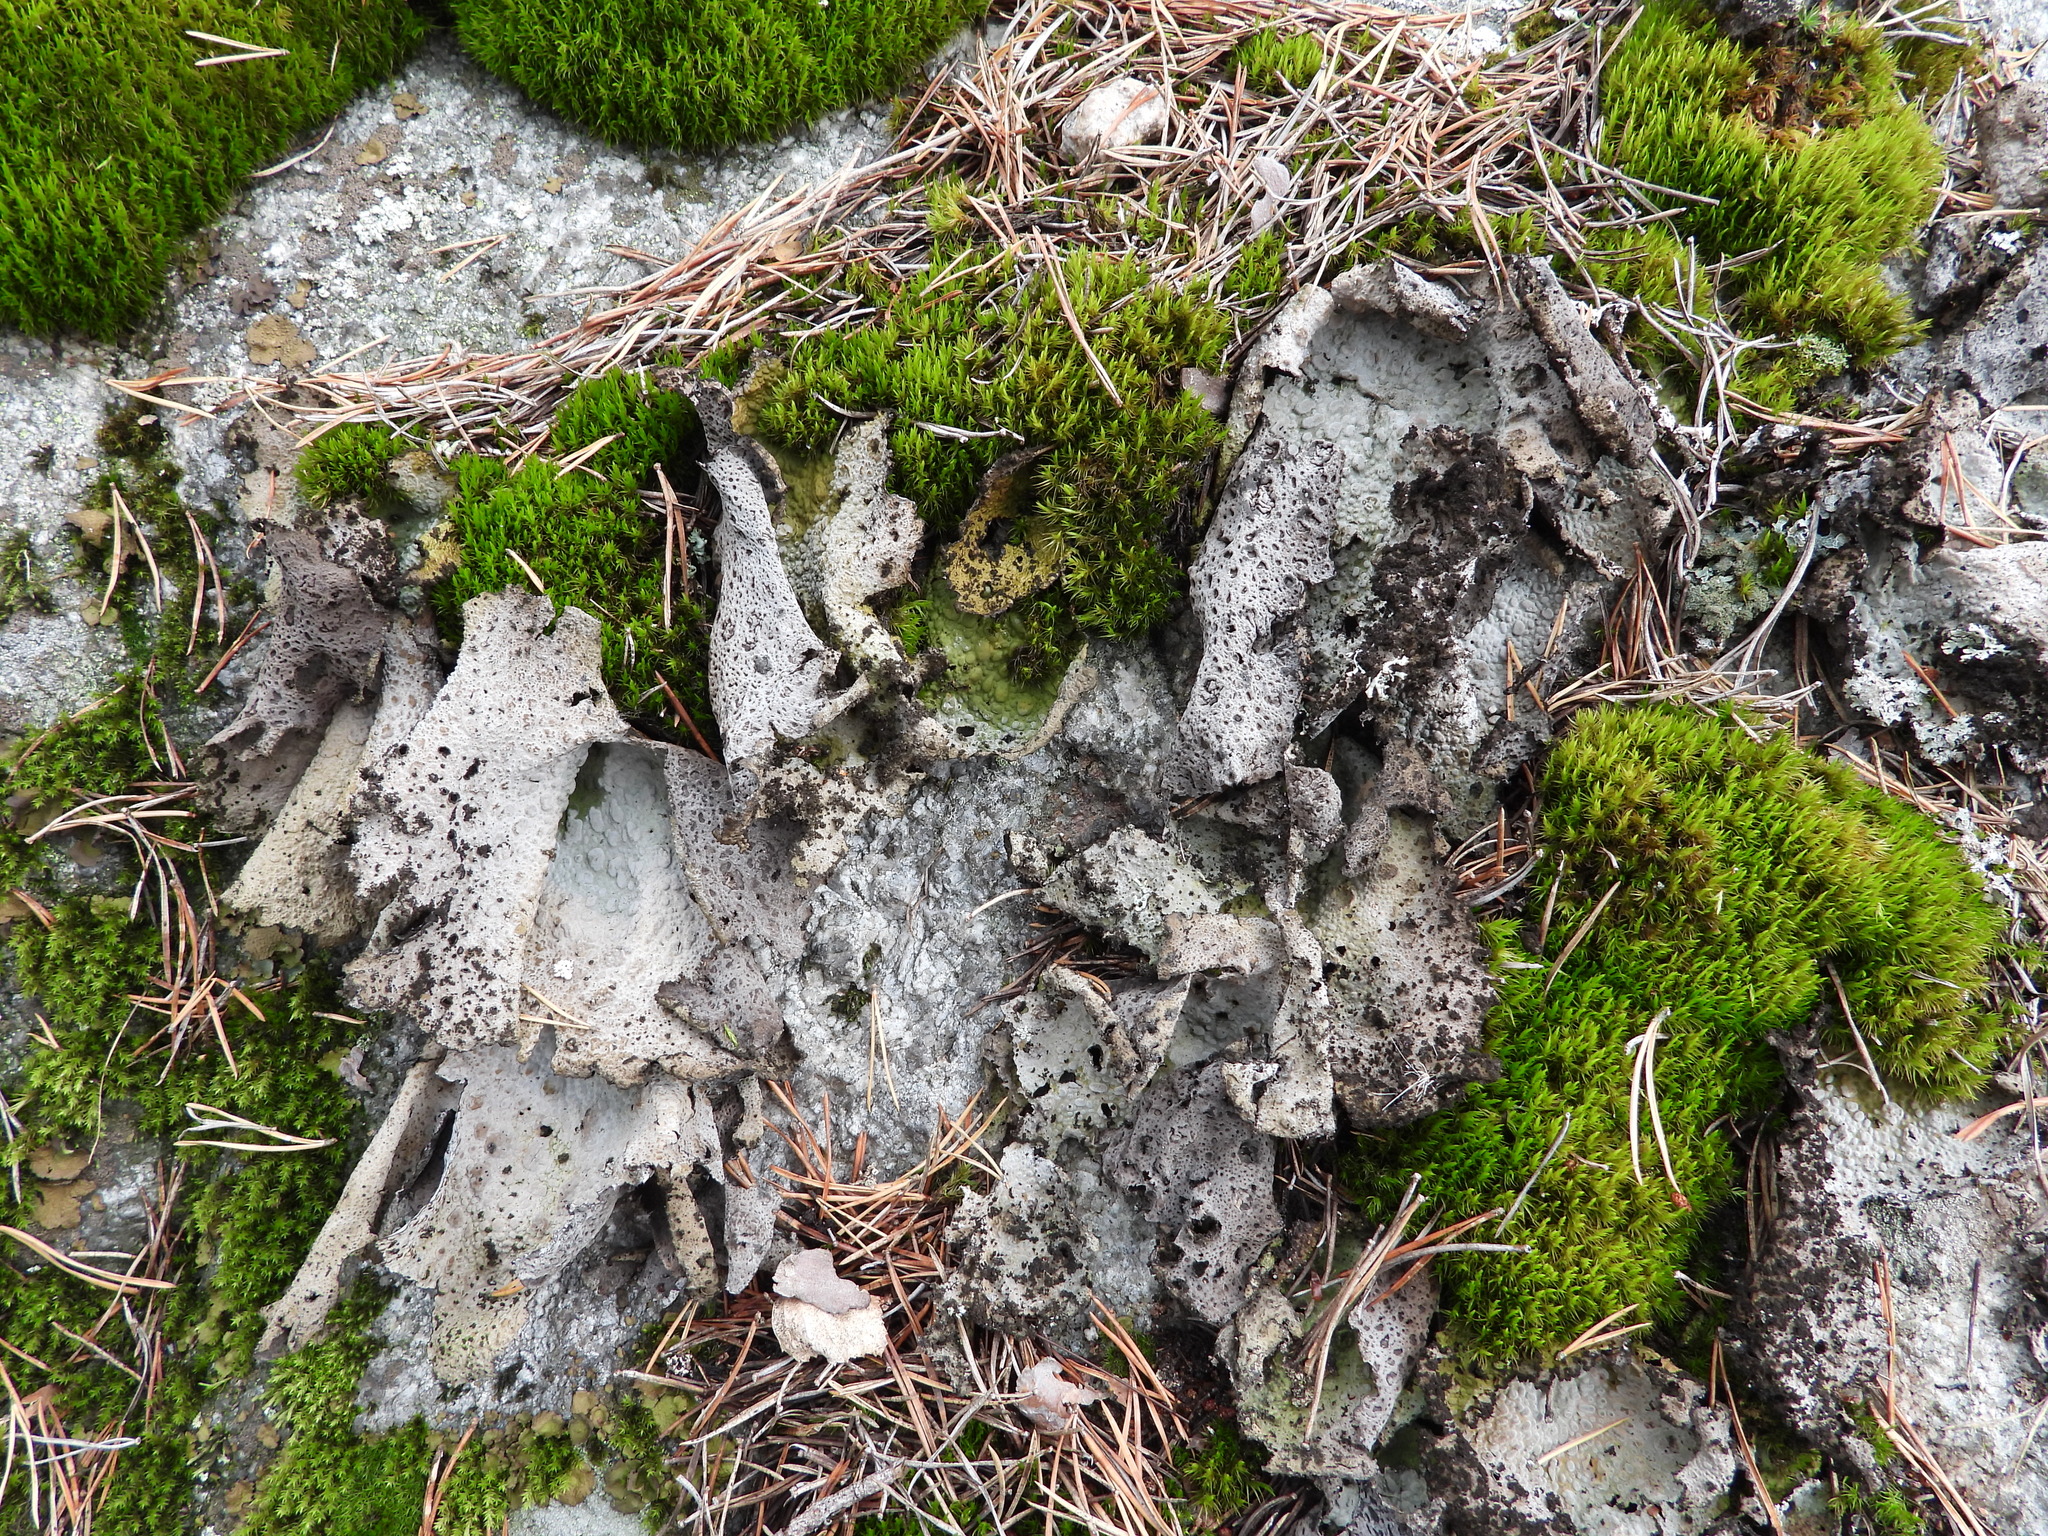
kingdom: Fungi
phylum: Ascomycota
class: Lecanoromycetes
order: Umbilicariales
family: Umbilicariaceae
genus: Lasallia
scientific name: Lasallia pustulata
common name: Blistered toadskin lichen
